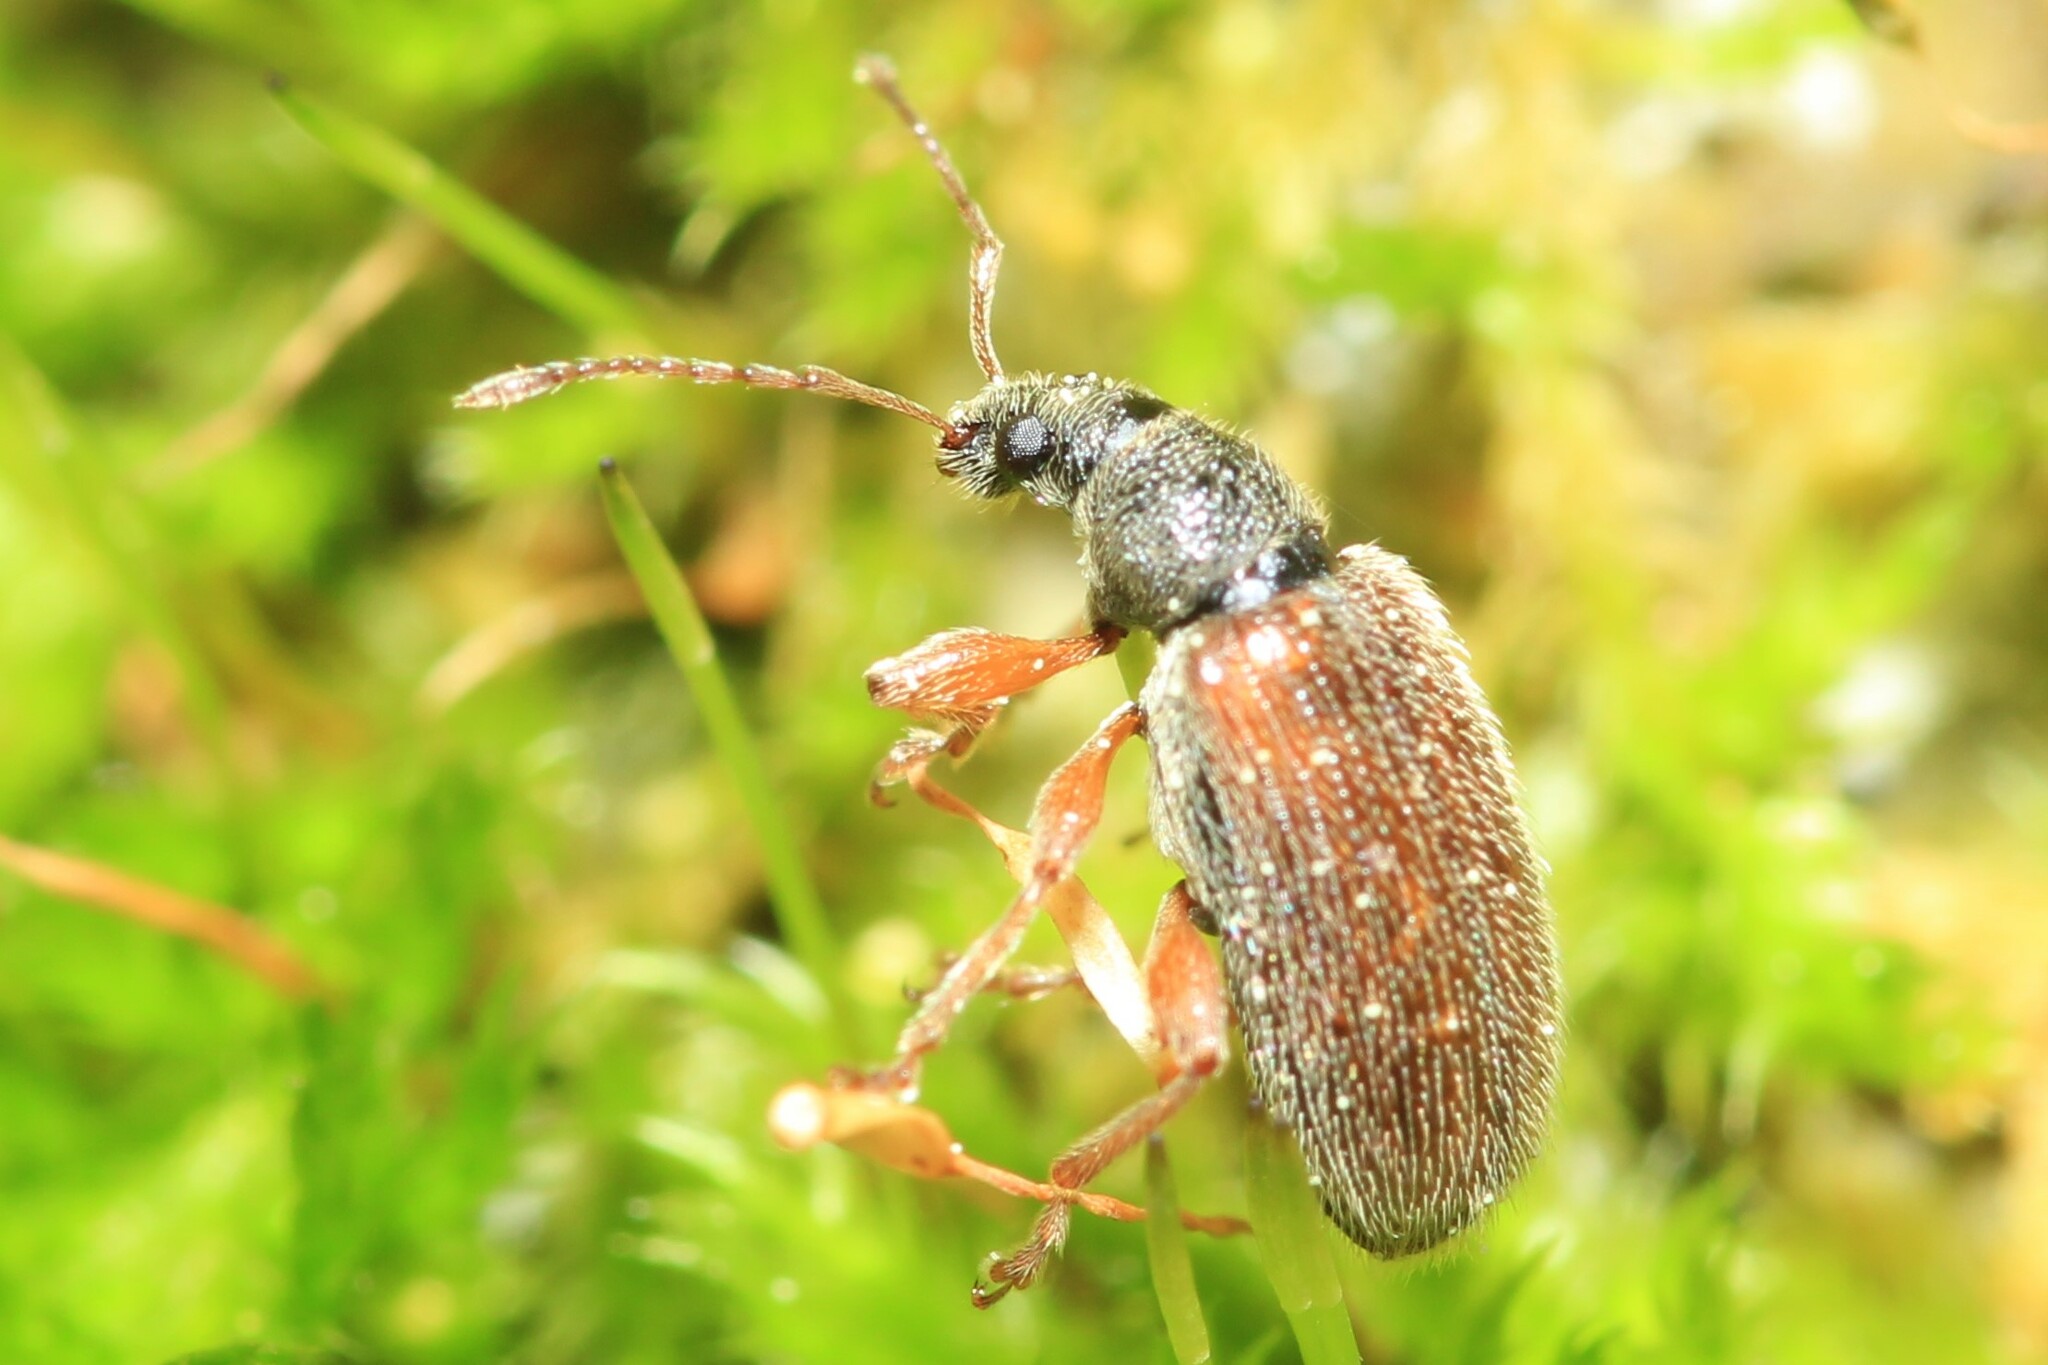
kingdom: Animalia
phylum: Arthropoda
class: Insecta
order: Coleoptera
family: Curculionidae
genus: Phyllobius
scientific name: Phyllobius oblongus
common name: Brown leaf weevil
